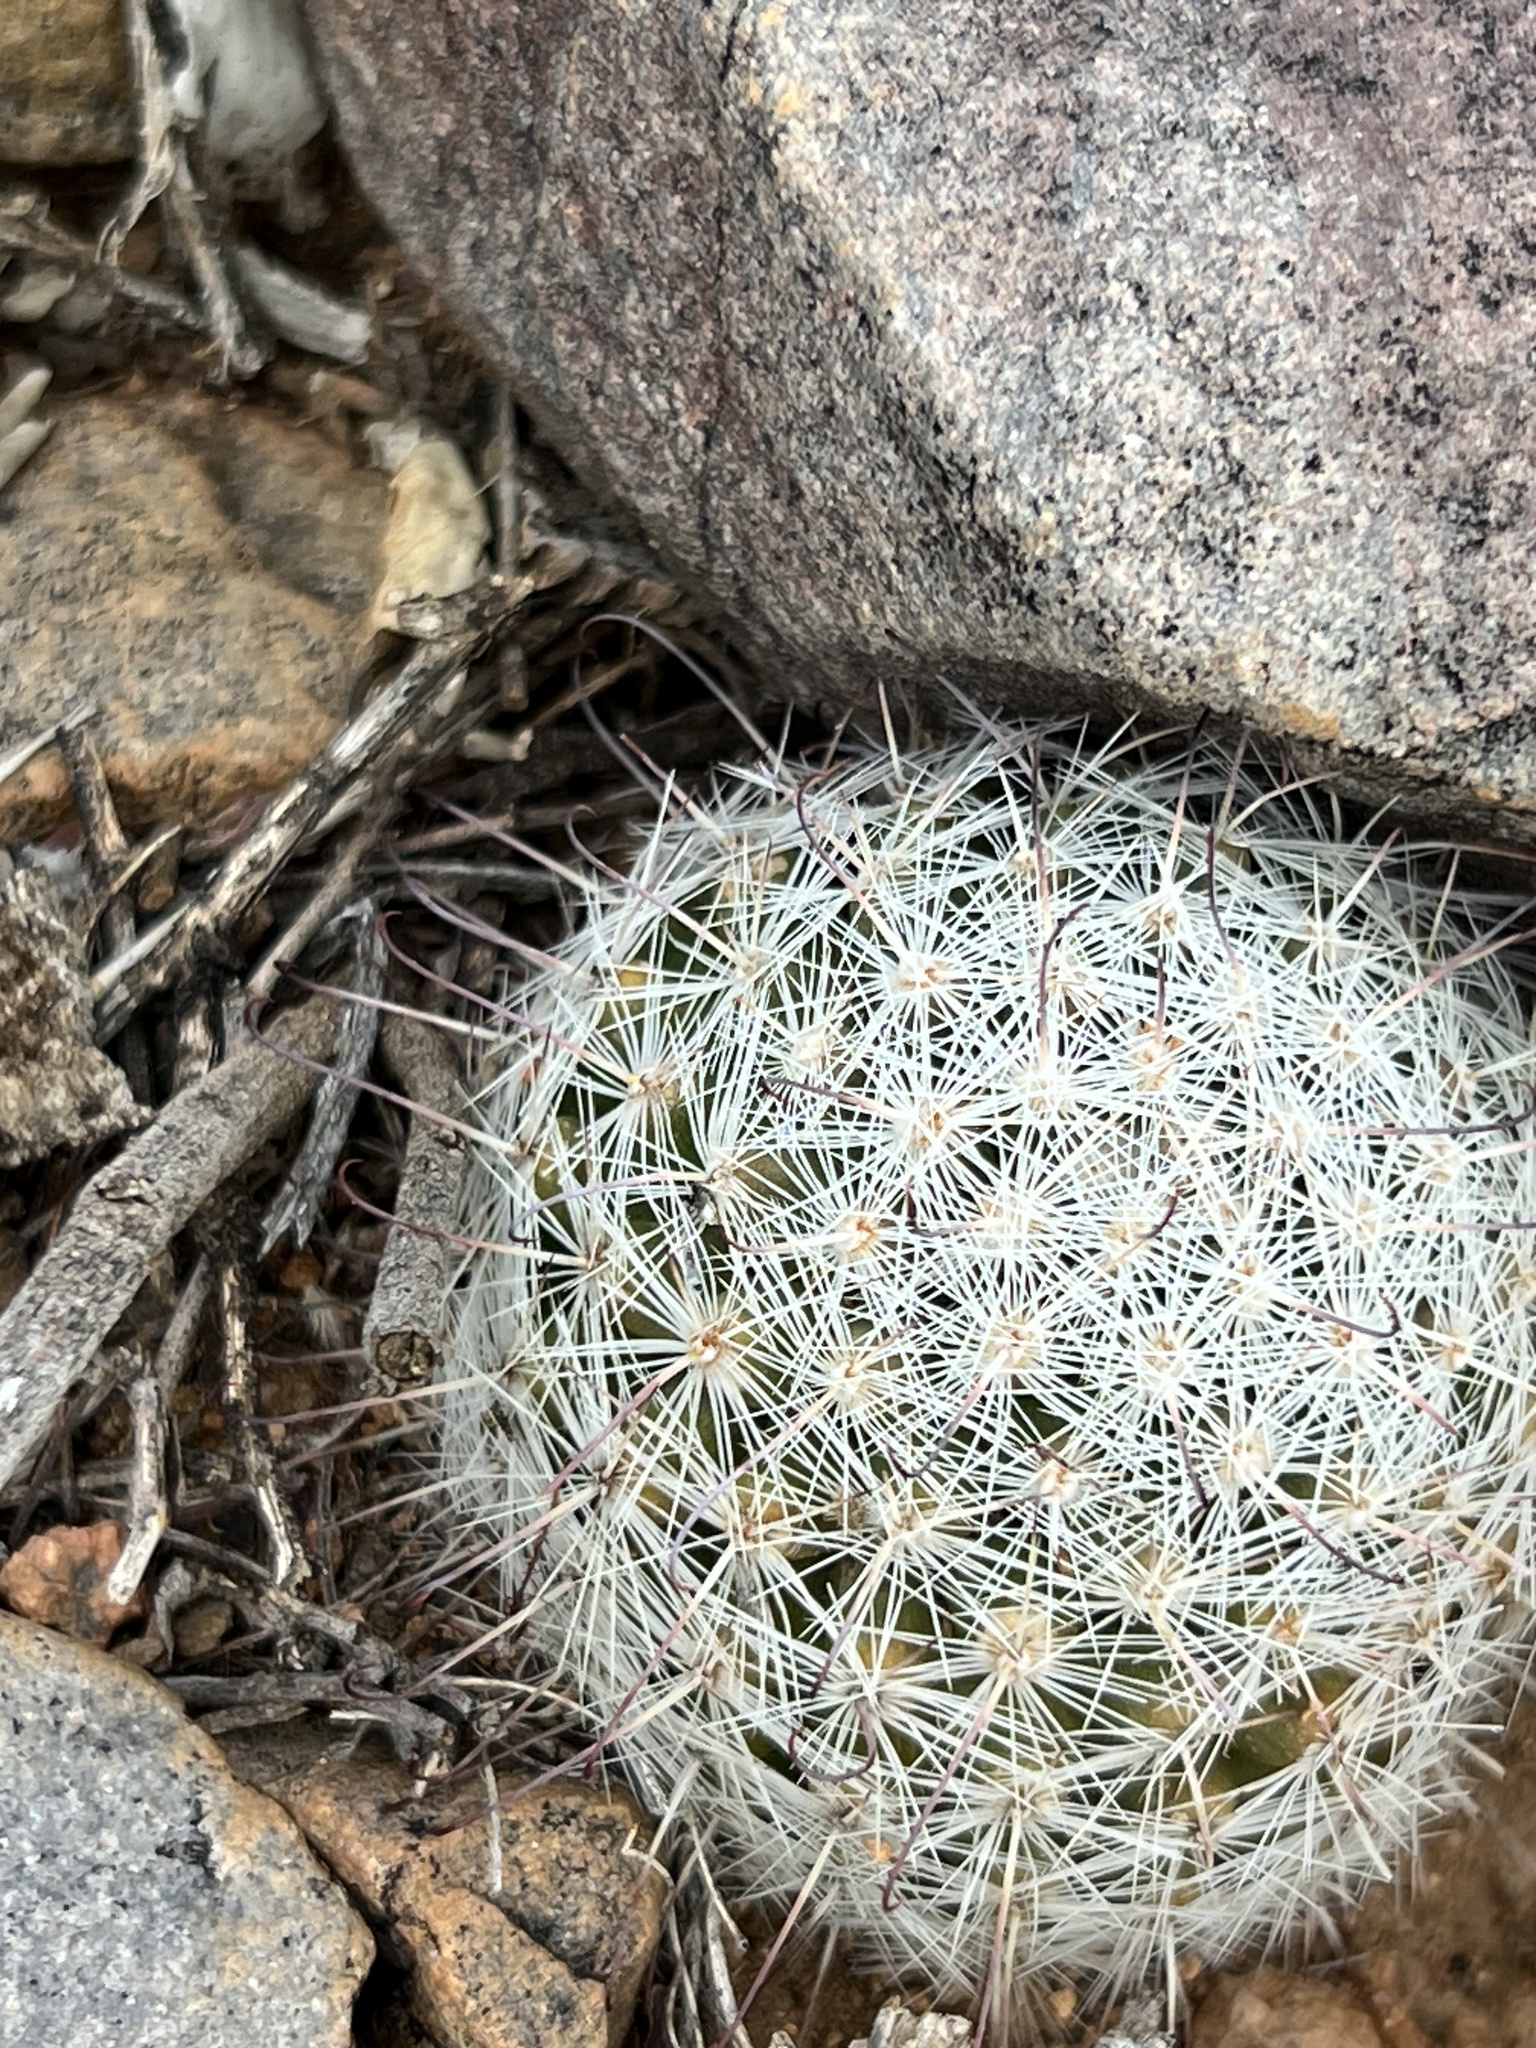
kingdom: Plantae
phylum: Tracheophyta
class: Magnoliopsida
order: Caryophyllales
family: Cactaceae
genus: Cochemiea
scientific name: Cochemiea grahamii
